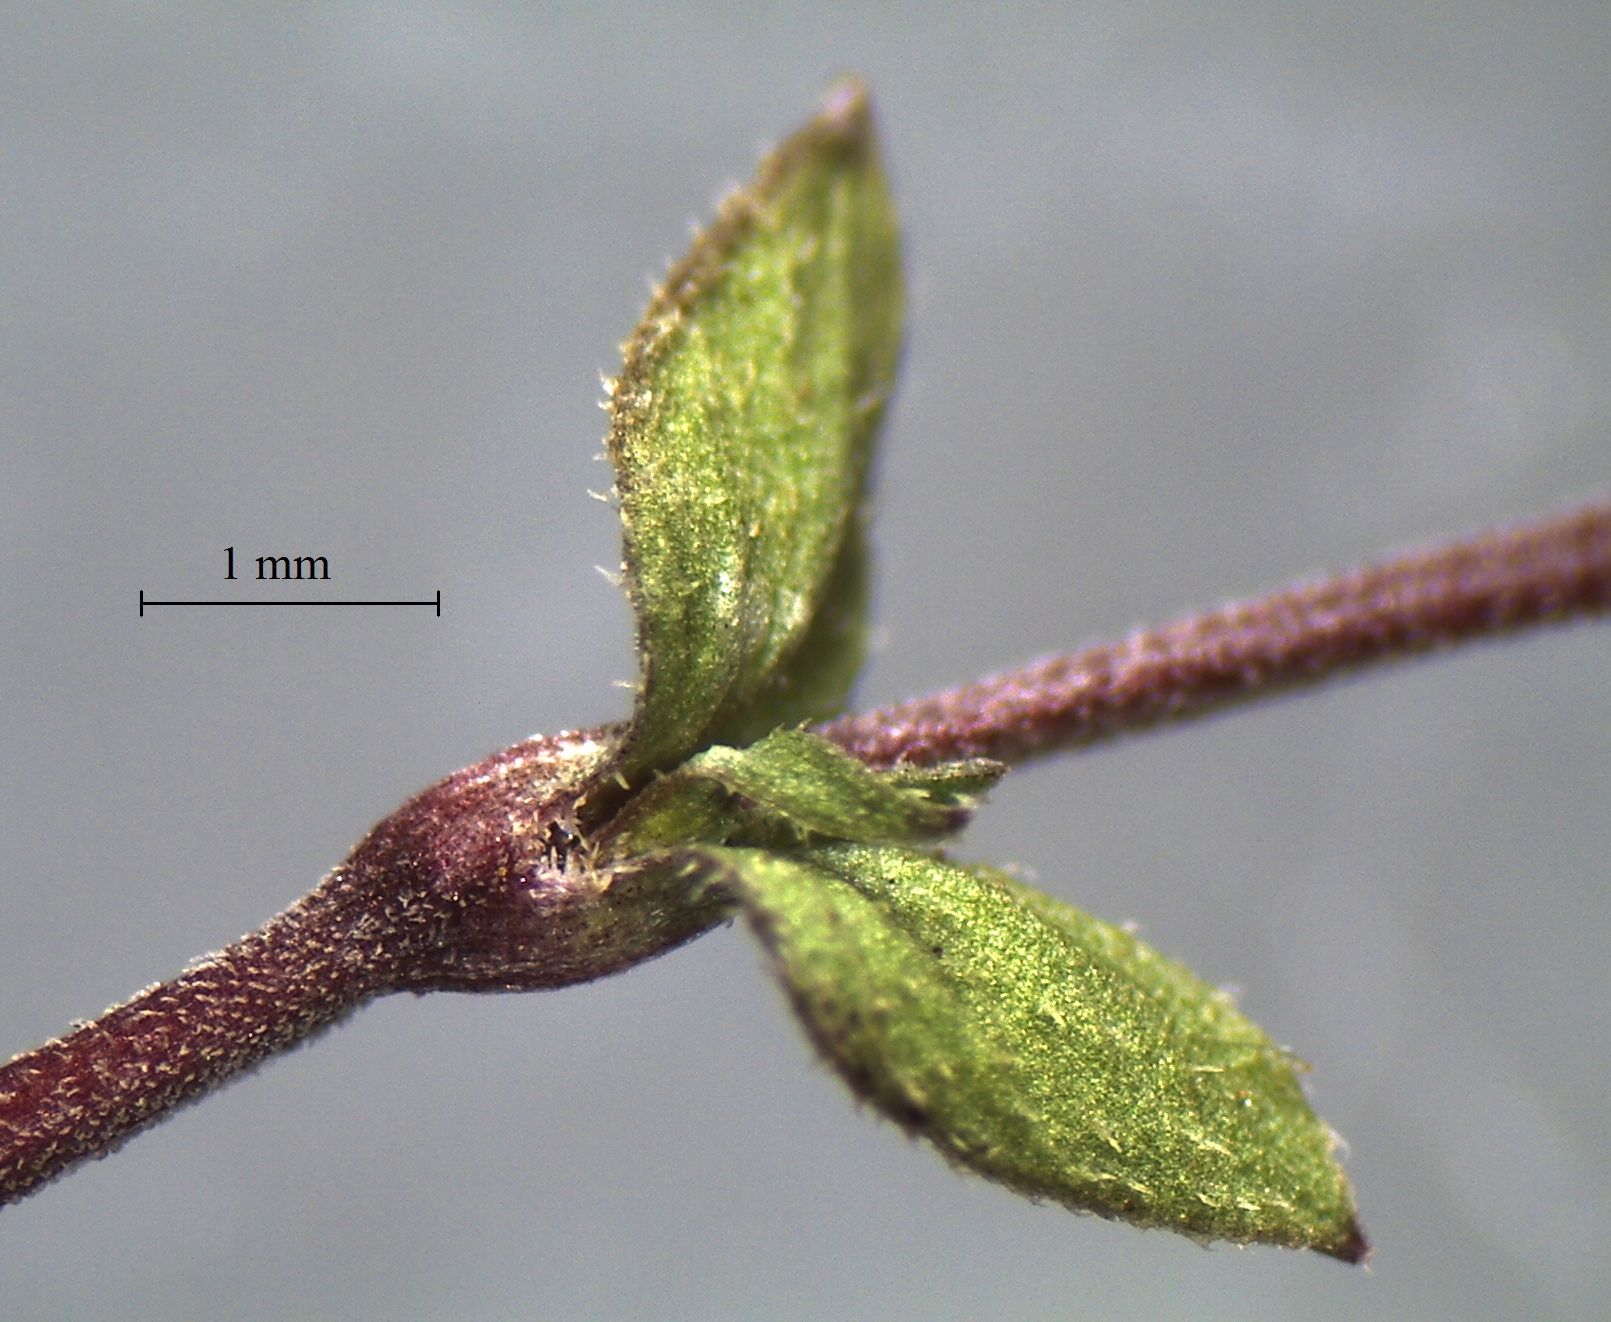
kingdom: Plantae
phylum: Tracheophyta
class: Magnoliopsida
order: Caryophyllales
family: Caryophyllaceae
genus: Arenaria
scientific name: Arenaria serpyllifolia
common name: Thyme-leaved sandwort
